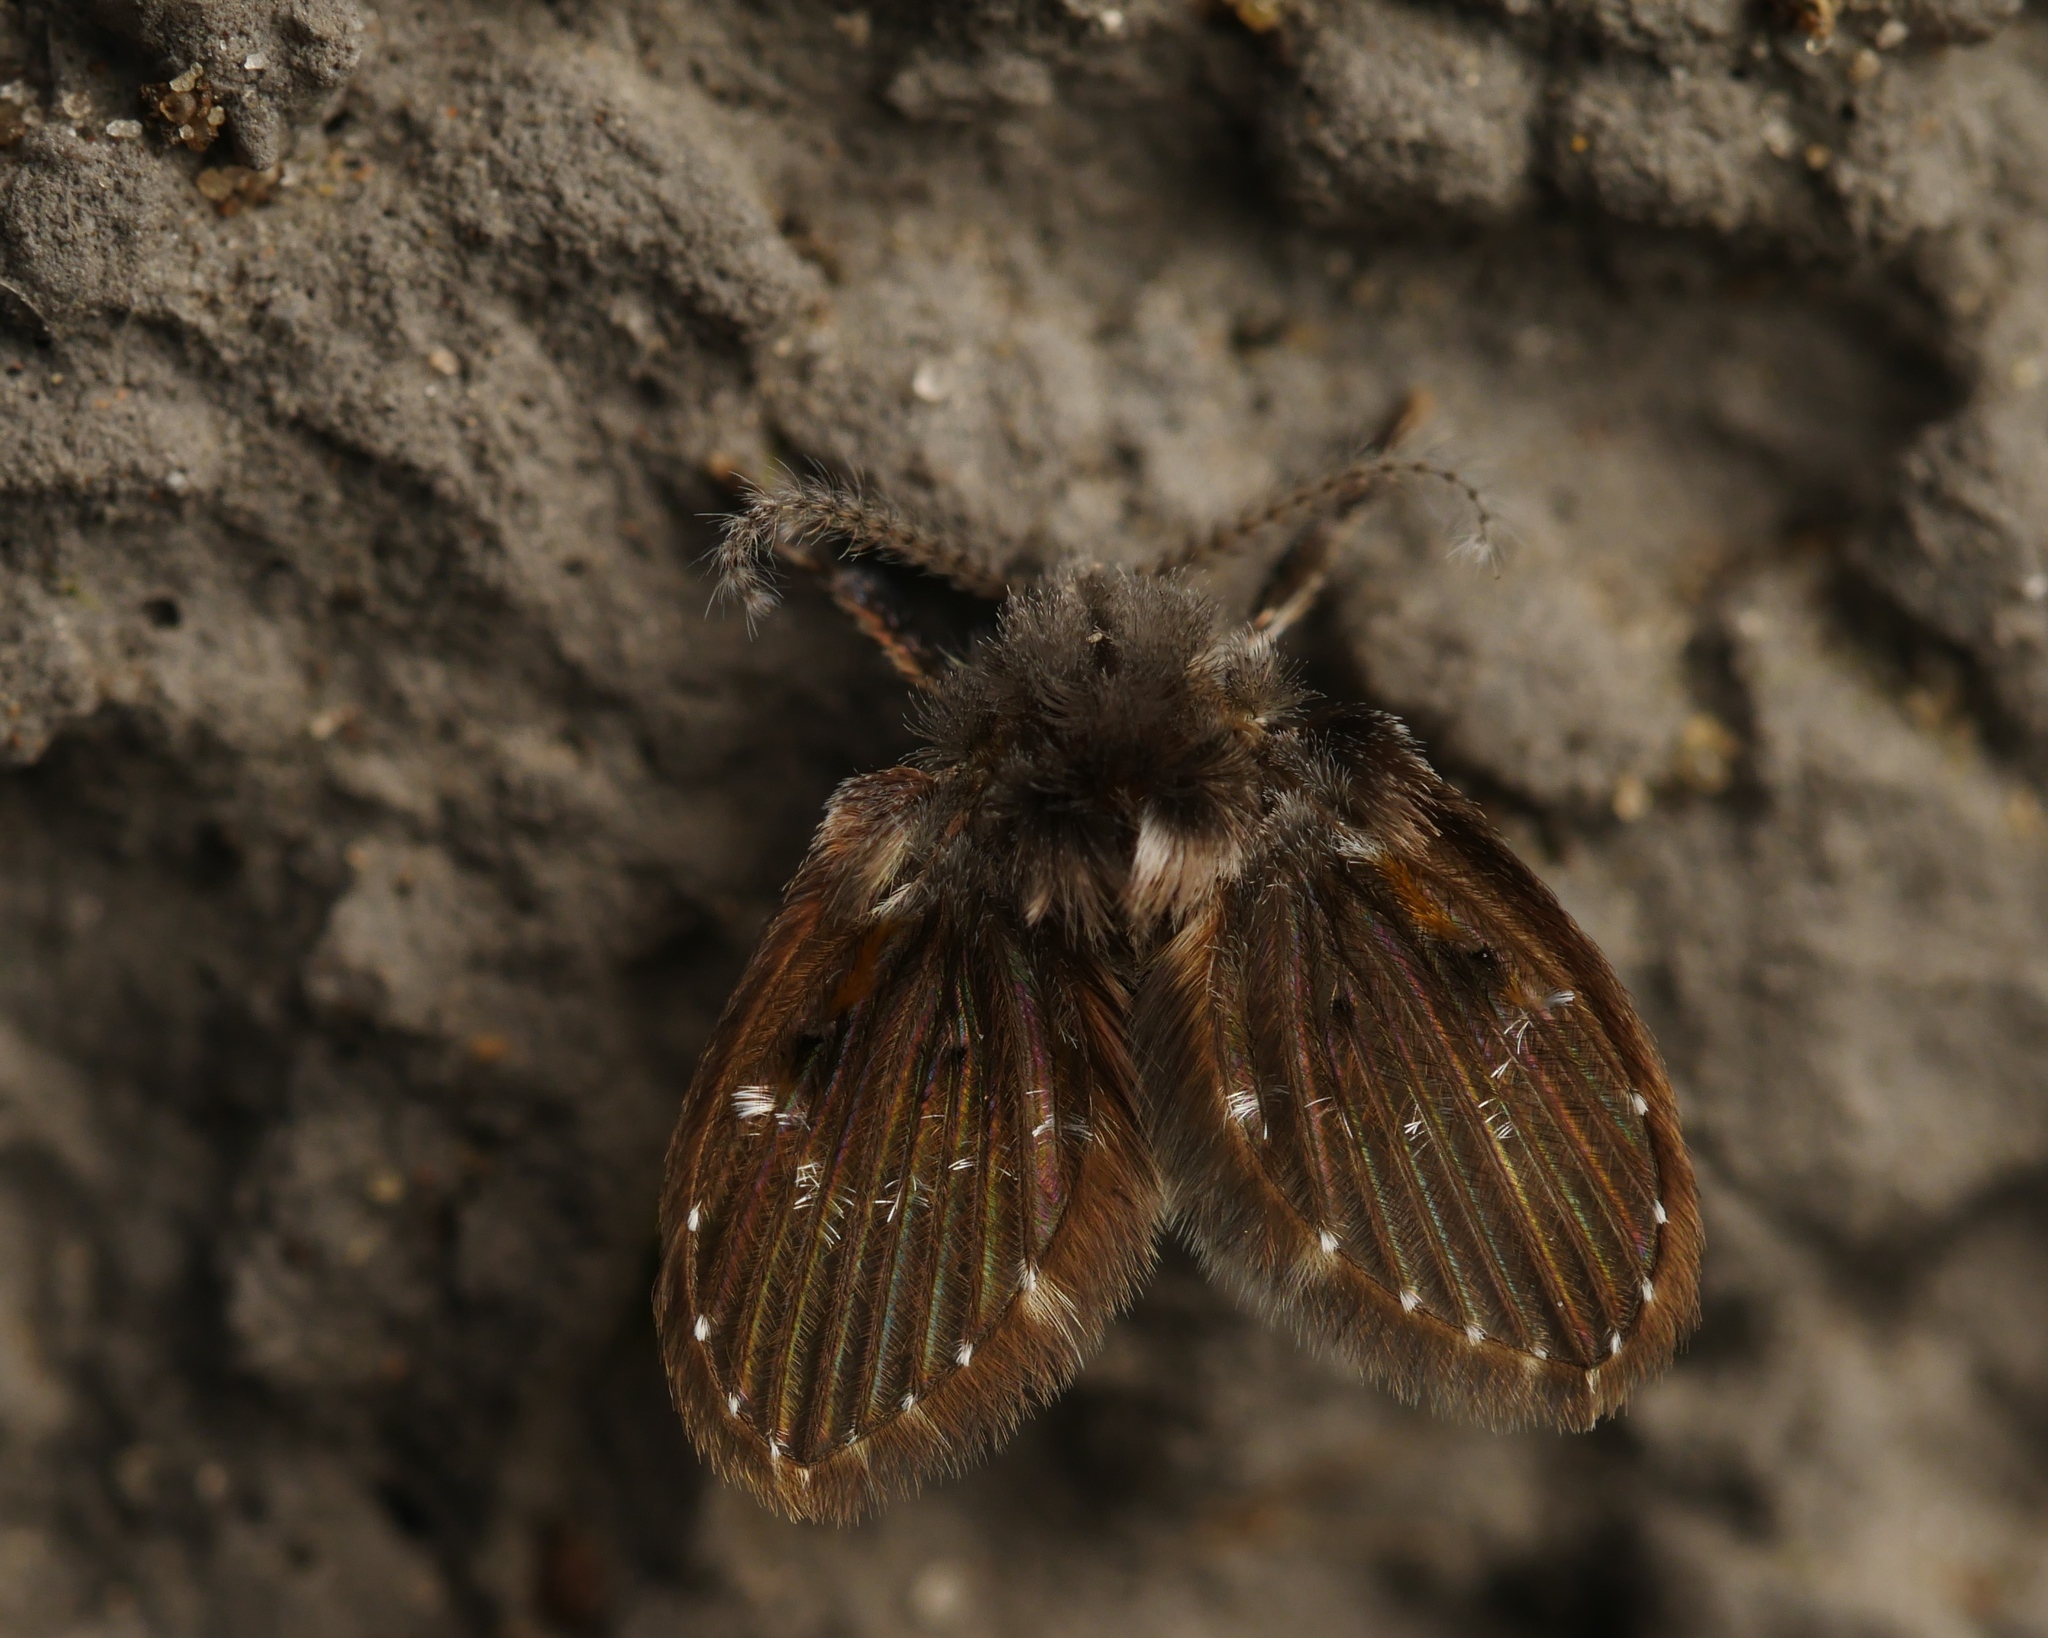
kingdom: Animalia
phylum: Arthropoda
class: Insecta
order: Diptera
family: Psychodidae
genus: Clogmia
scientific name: Clogmia albipunctatus
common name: White-spotted moth fly
